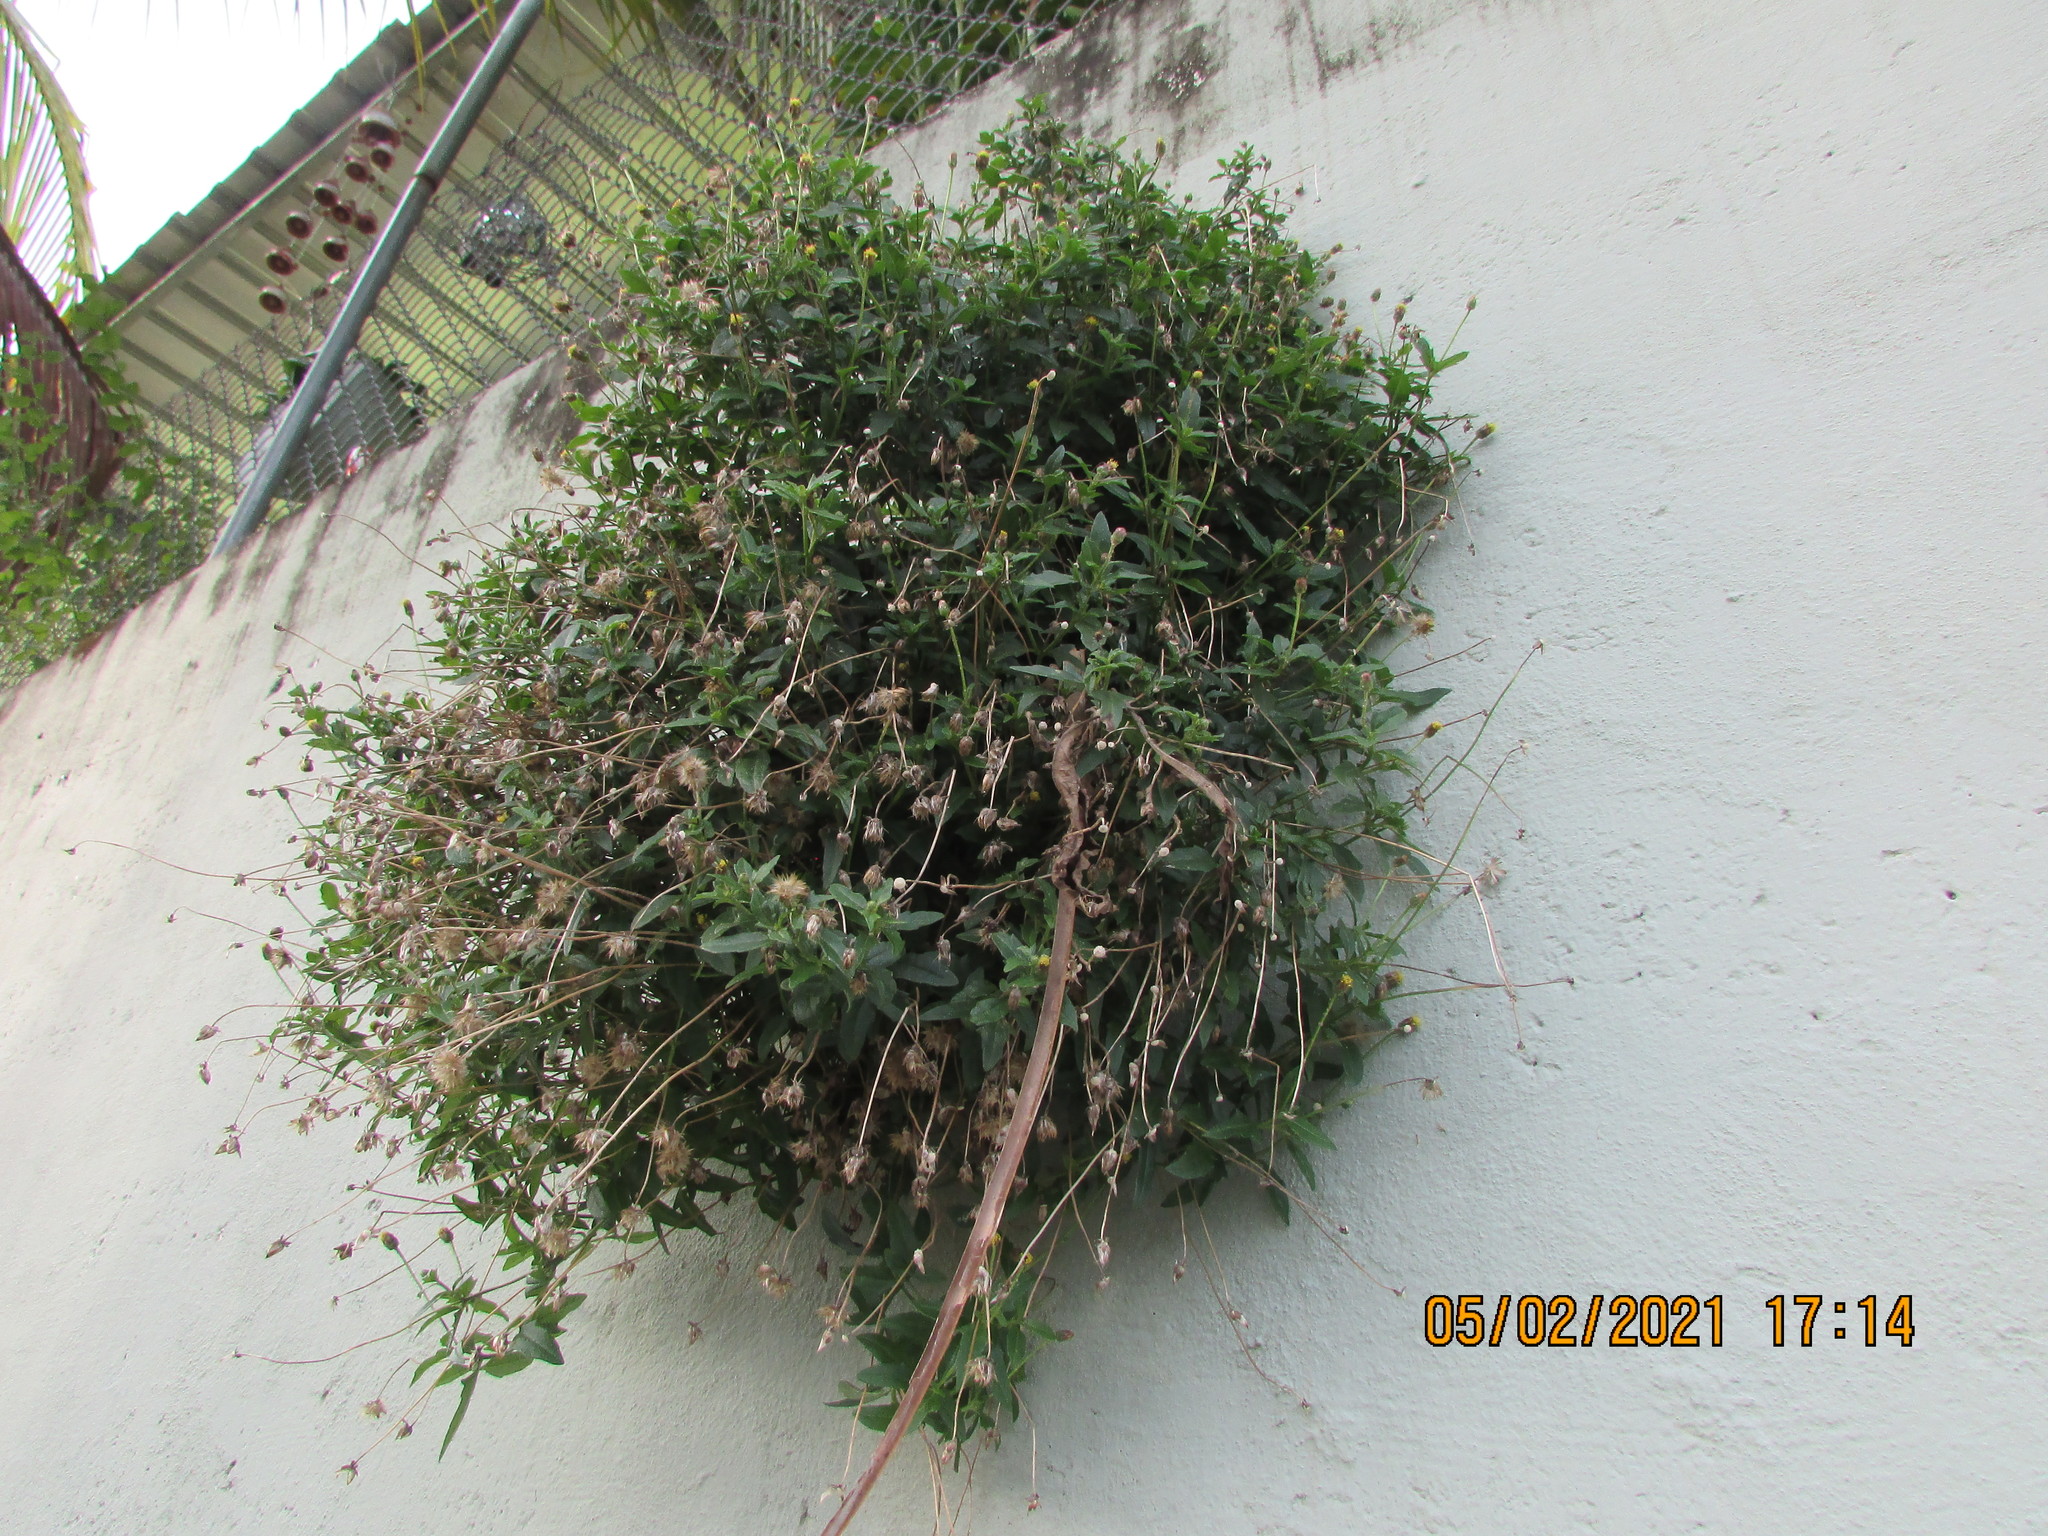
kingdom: Plantae
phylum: Tracheophyta
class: Magnoliopsida
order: Asterales
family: Asteraceae
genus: Tridax
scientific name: Tridax procumbens
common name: Coatbuttons
